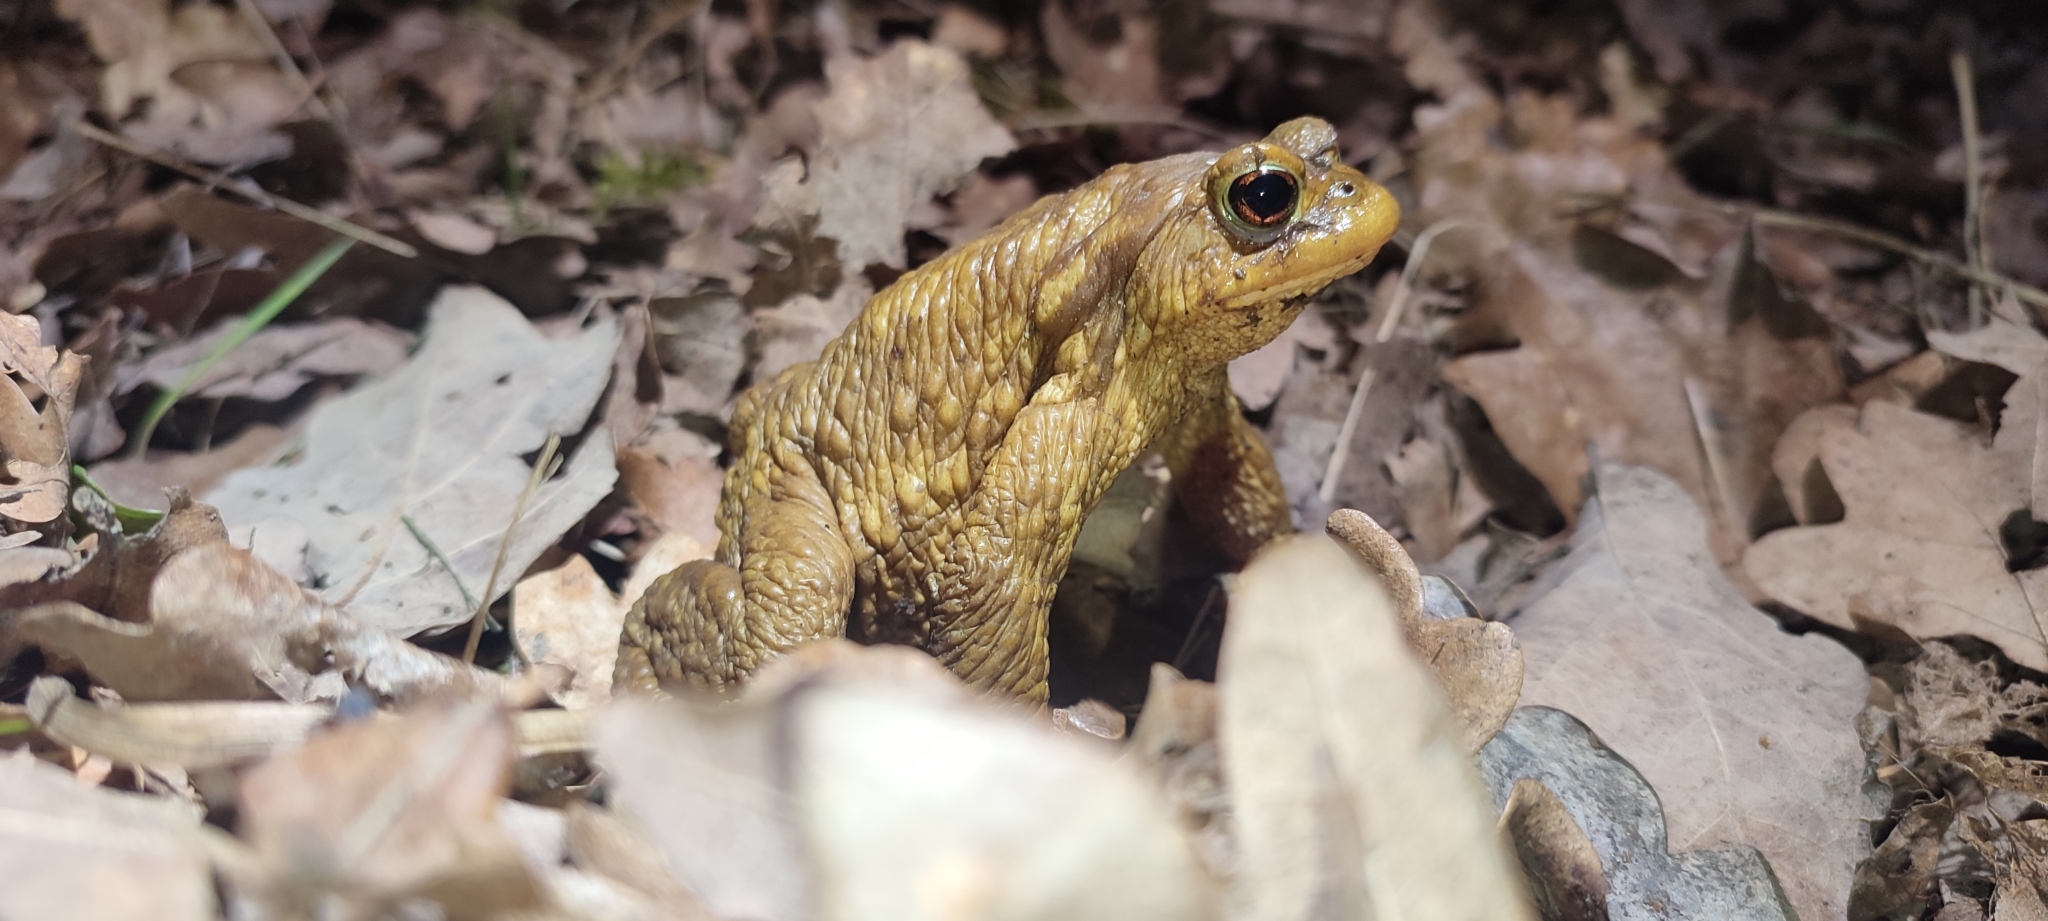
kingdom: Animalia
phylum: Chordata
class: Amphibia
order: Anura
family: Bufonidae
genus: Bufo
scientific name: Bufo spinosus
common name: Western common toad
